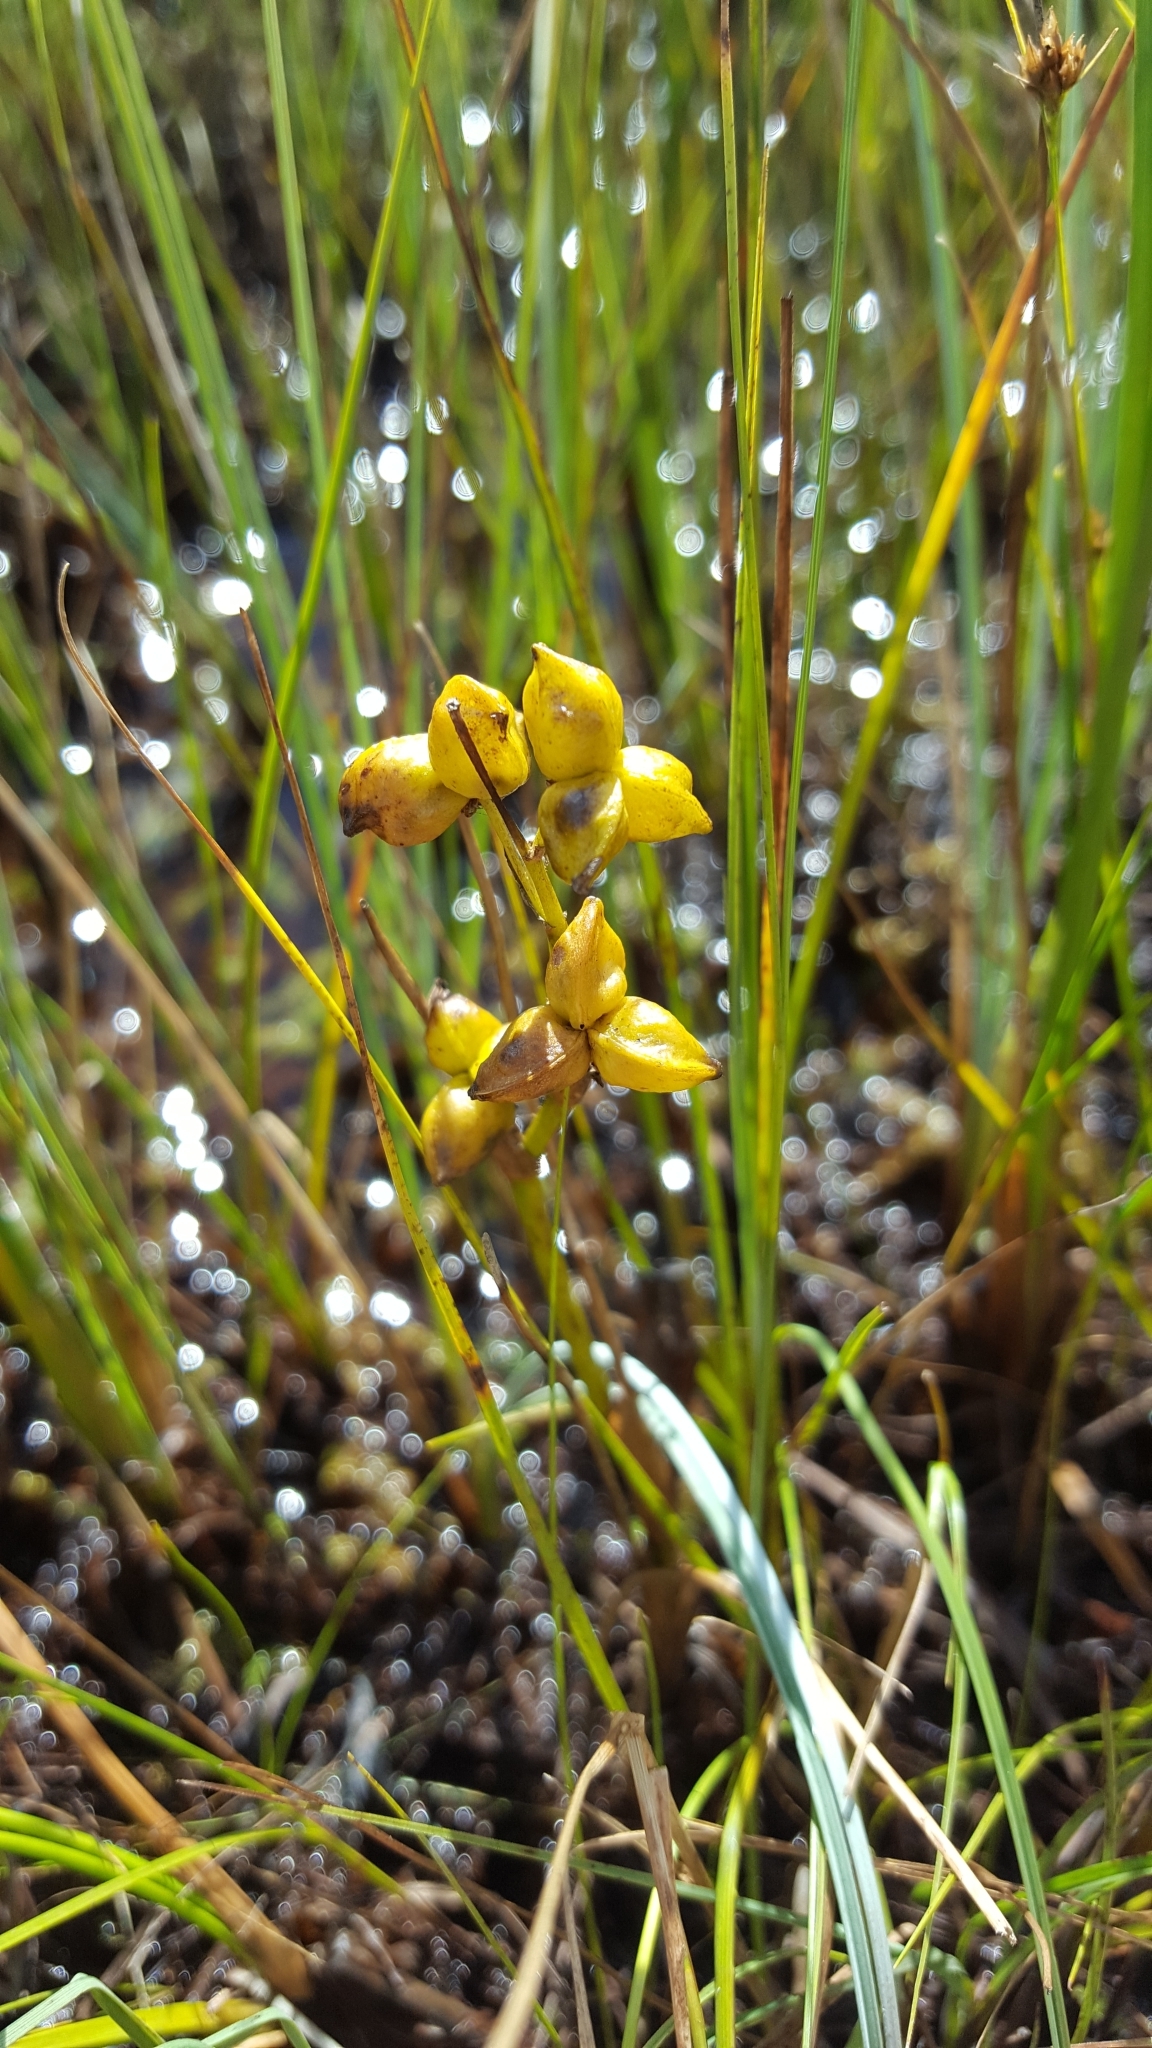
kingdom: Plantae
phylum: Tracheophyta
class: Liliopsida
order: Alismatales
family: Scheuchzeriaceae
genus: Scheuchzeria
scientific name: Scheuchzeria palustris
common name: Rannoch-rush
